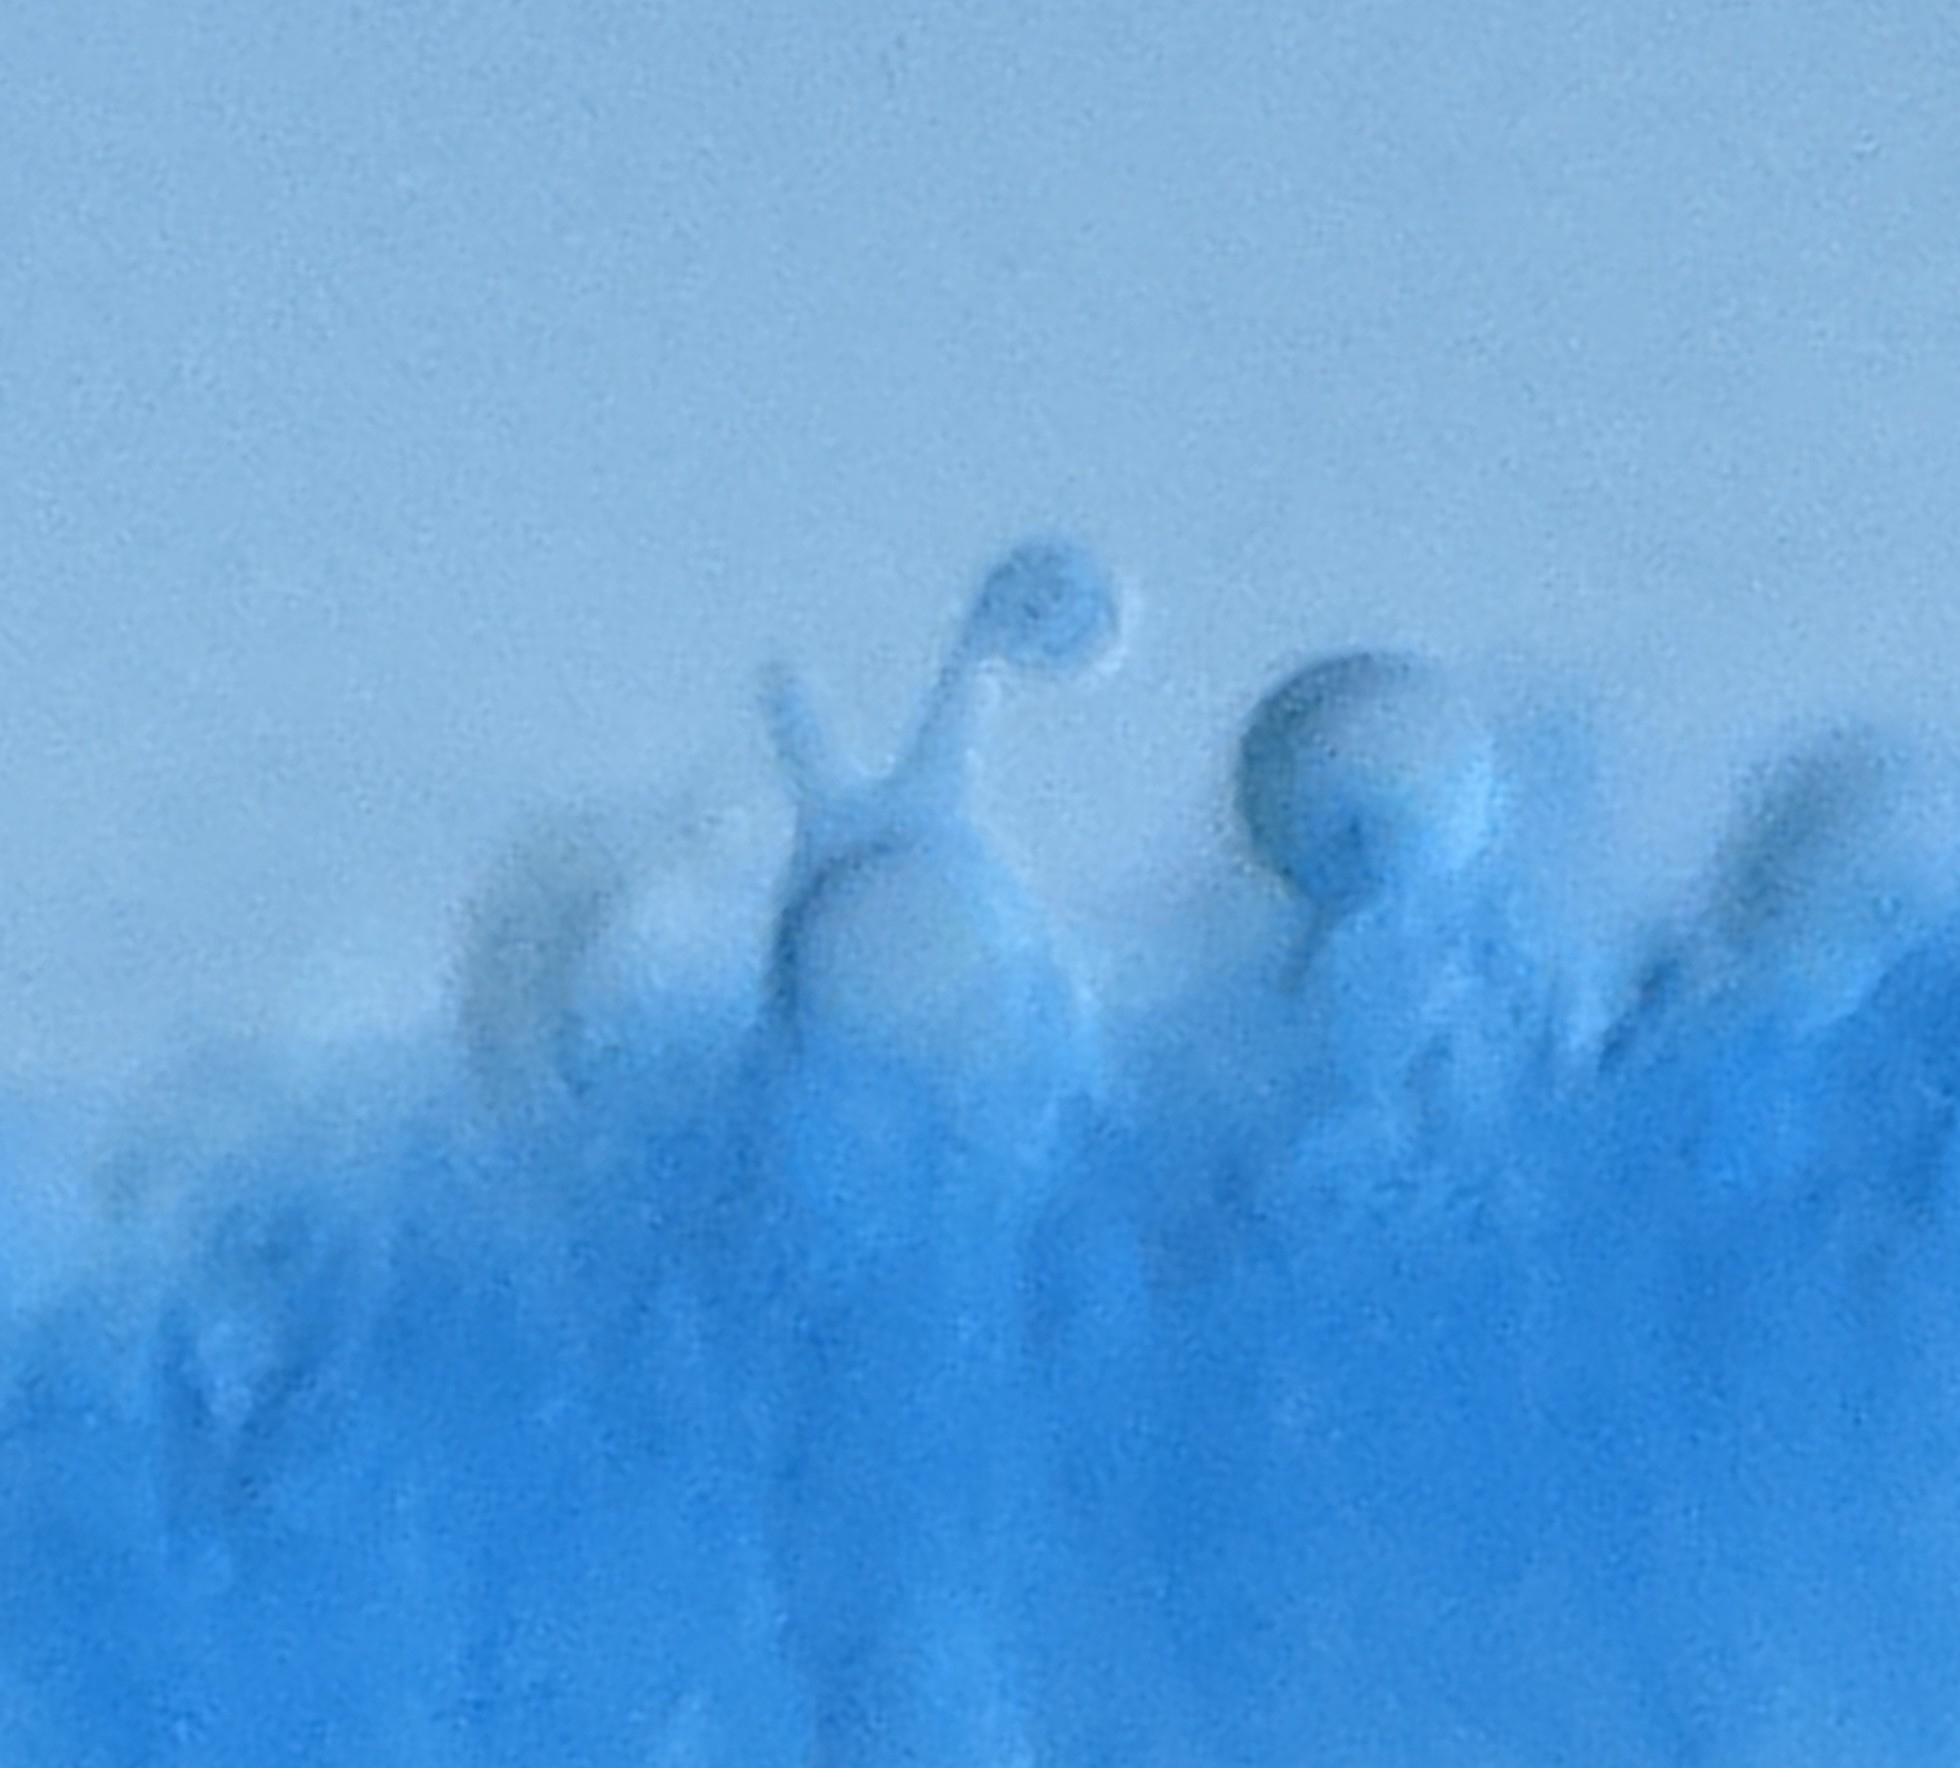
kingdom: Fungi
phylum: Basidiomycota
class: Agaricomycetes
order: Agaricales
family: Amanitaceae
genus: Amanita
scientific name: Amanita bisporigera
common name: Eastern north american destroying angel
